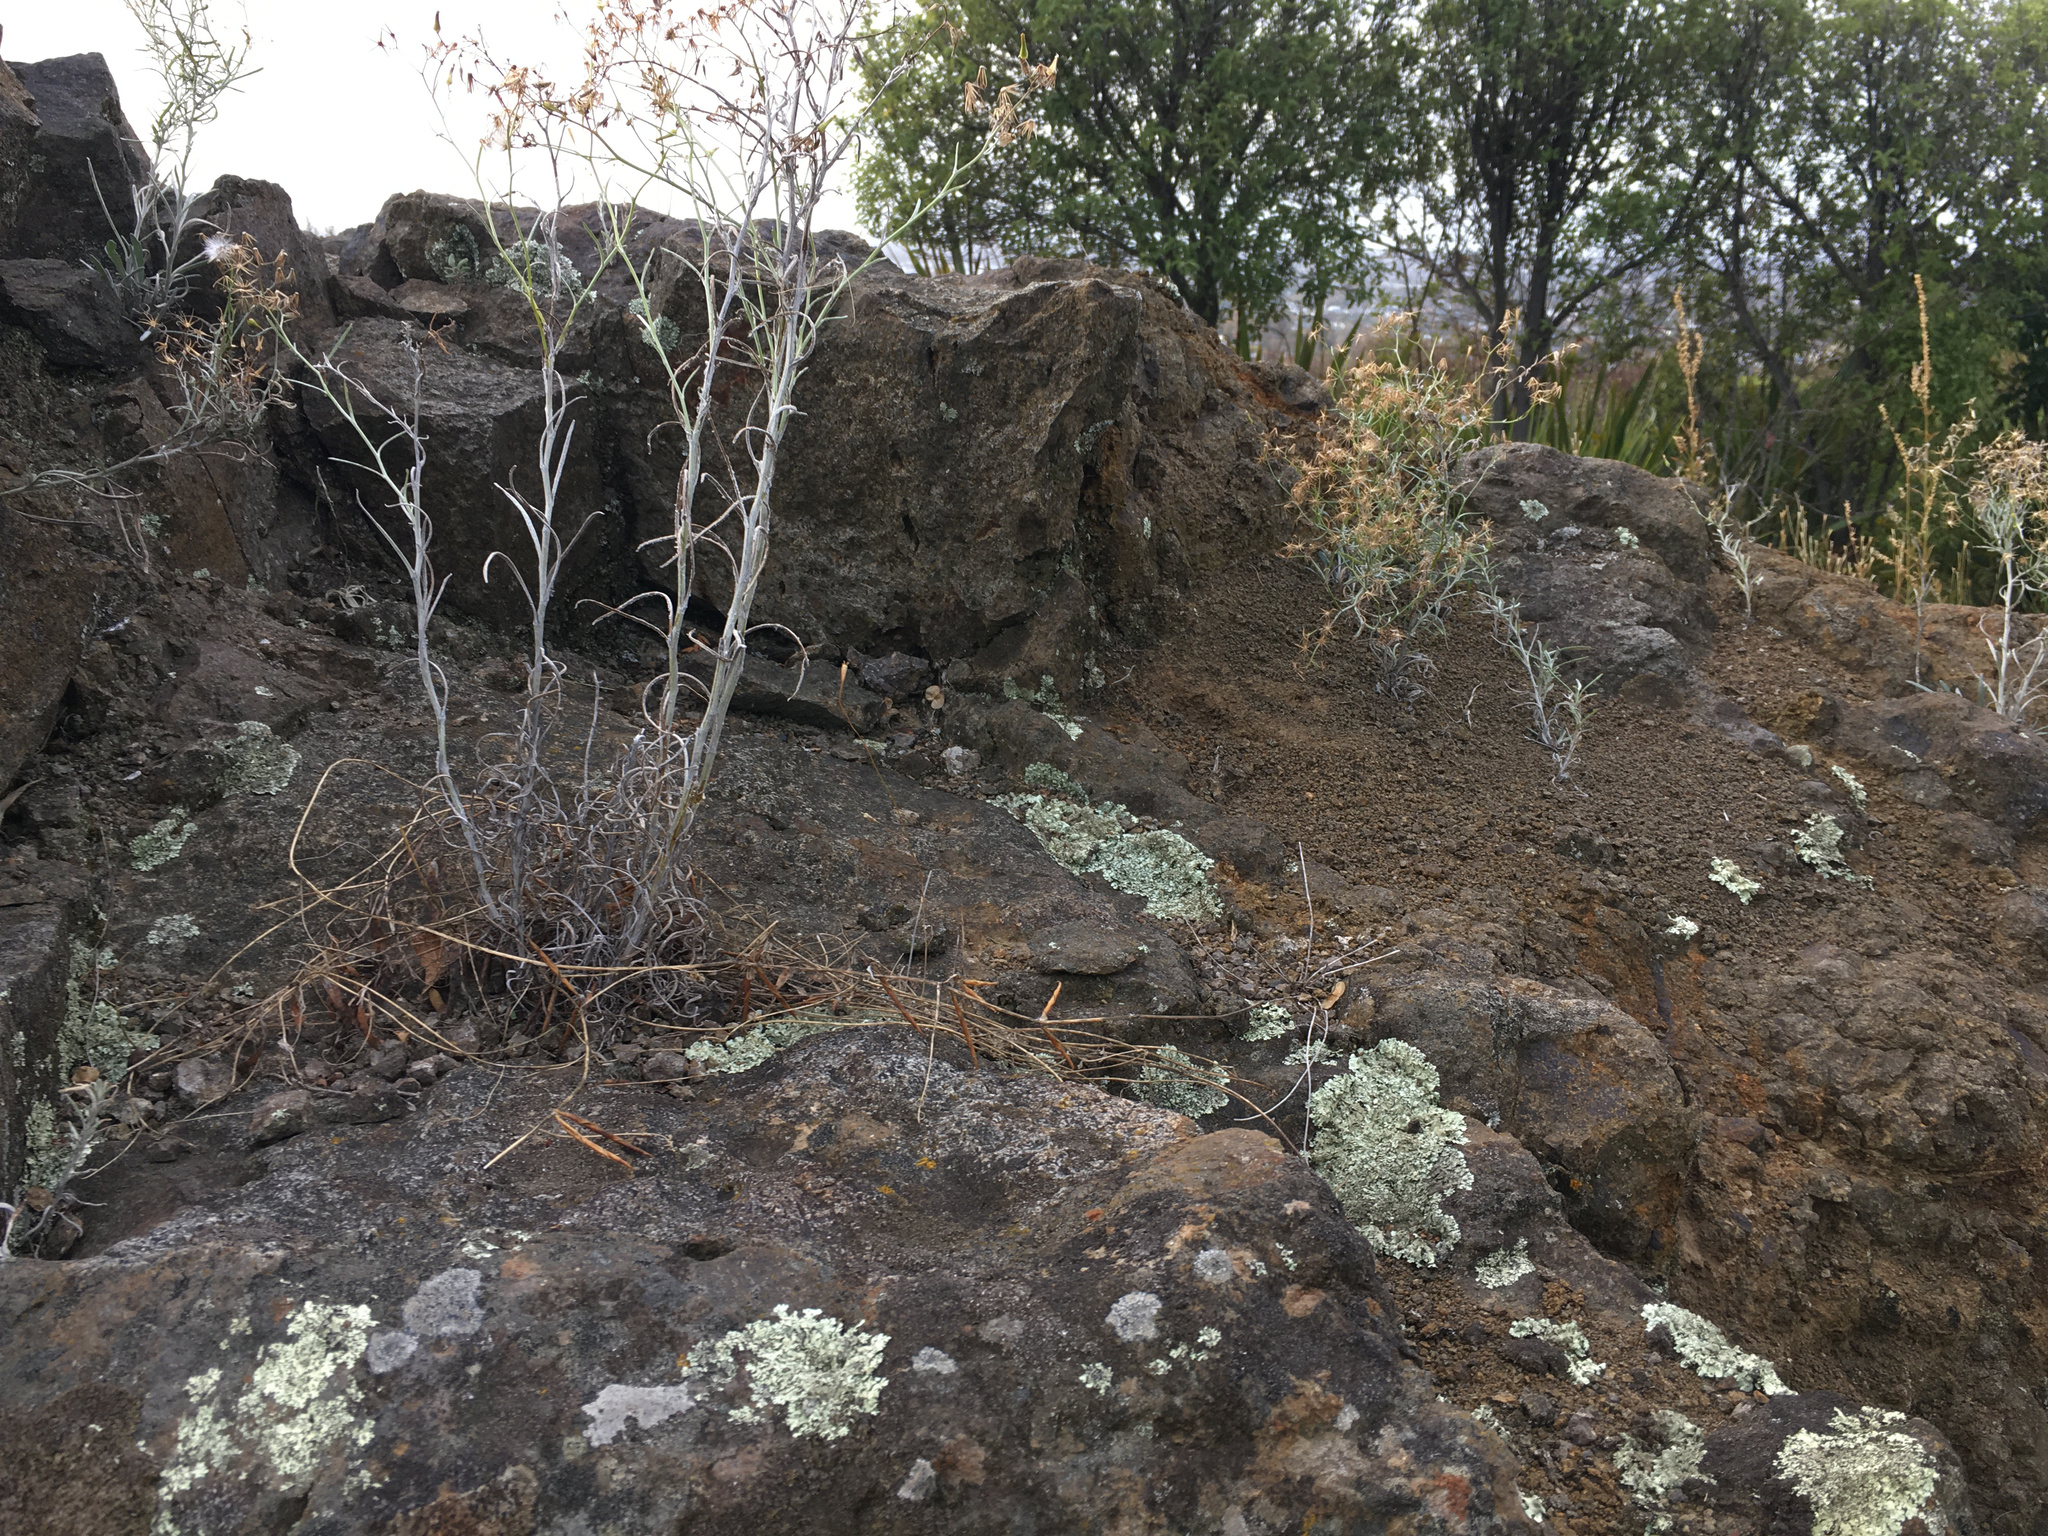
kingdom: Plantae
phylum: Tracheophyta
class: Magnoliopsida
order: Asterales
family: Asteraceae
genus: Senecio
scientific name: Senecio quadridentatus
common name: Cotton fireweed
